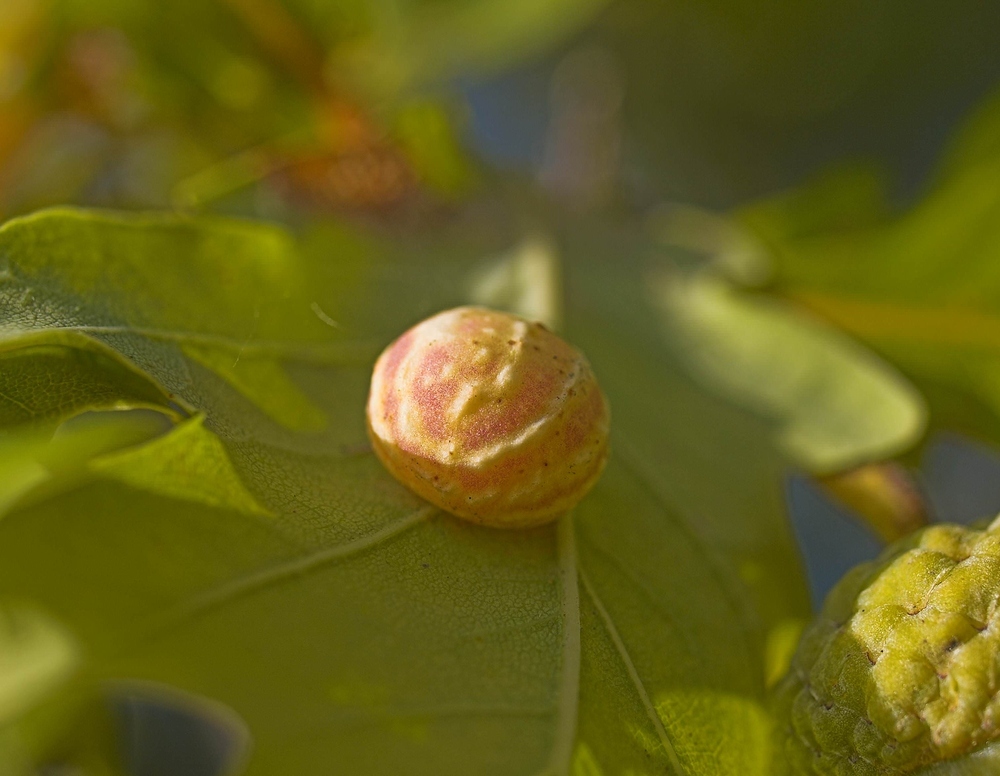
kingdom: Animalia
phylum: Arthropoda
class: Insecta
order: Hymenoptera
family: Cynipidae
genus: Cynips
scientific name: Cynips longiventris
